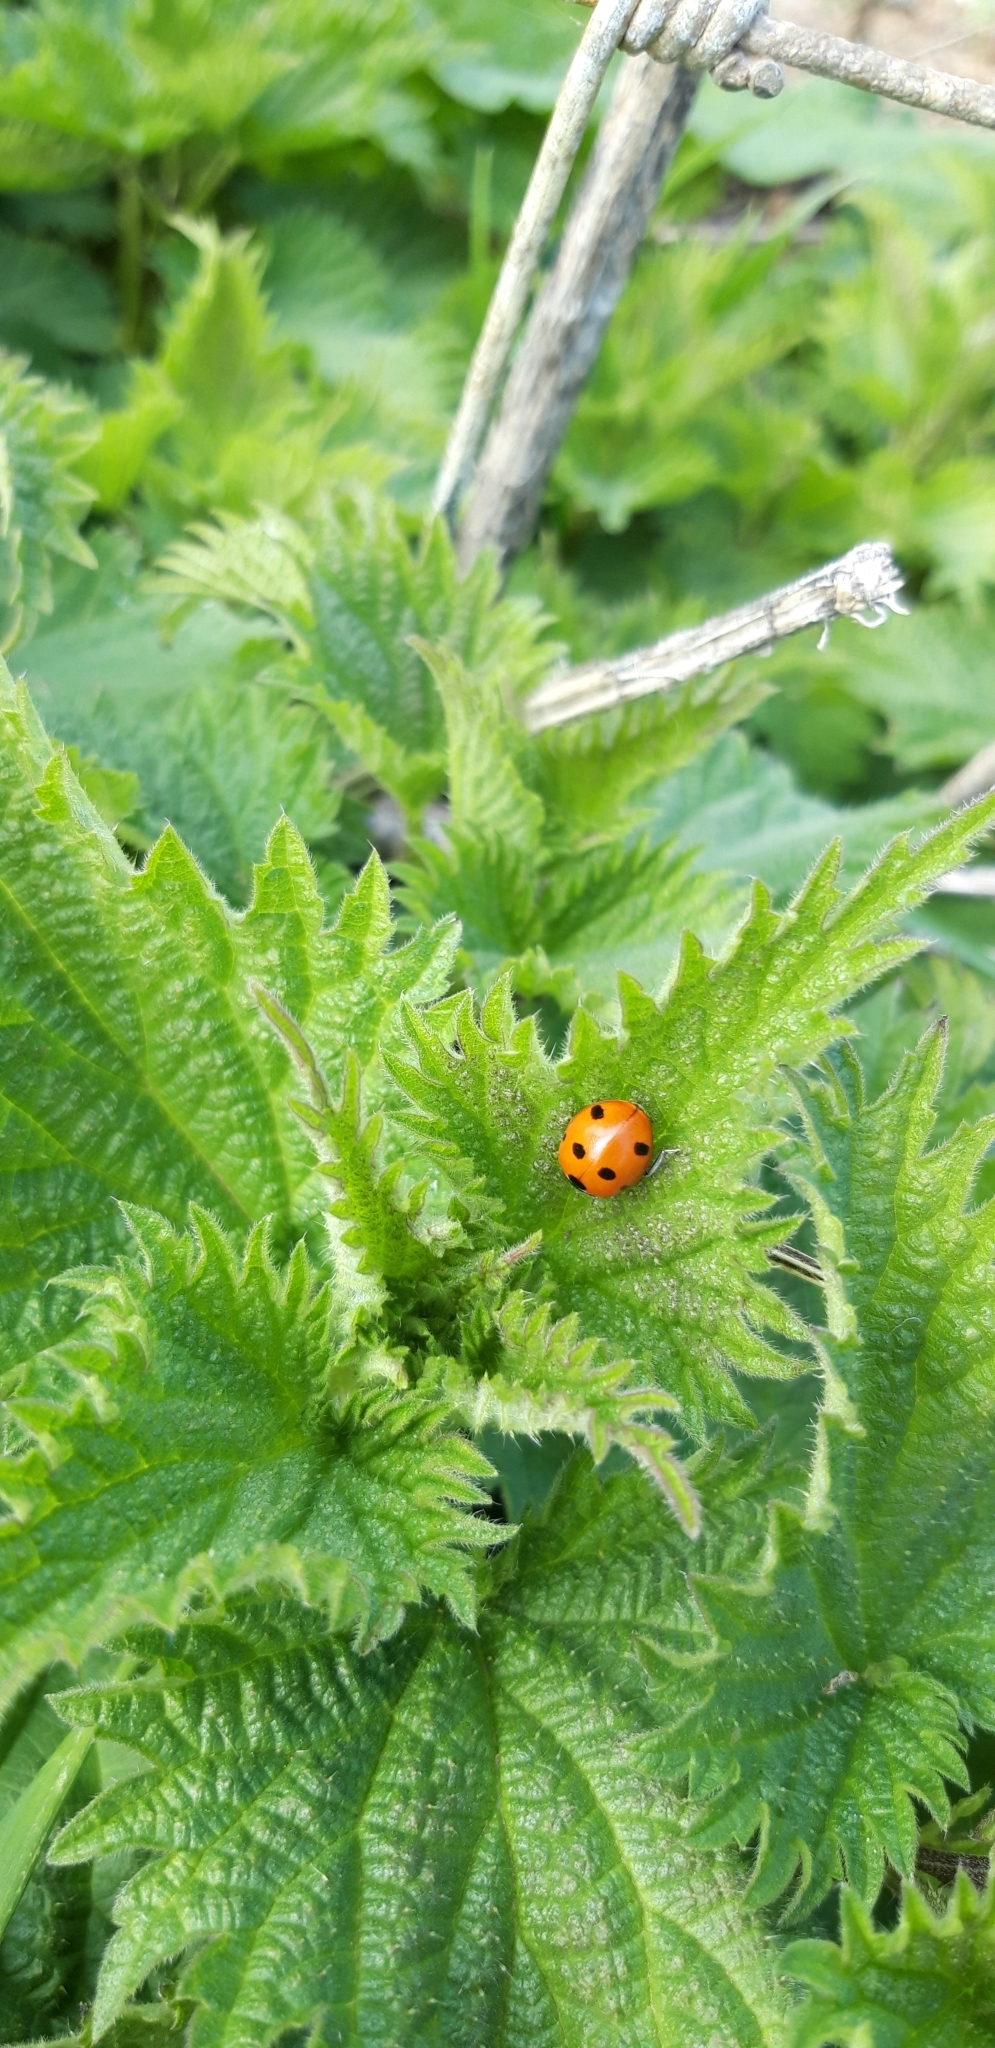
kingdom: Animalia
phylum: Arthropoda
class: Insecta
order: Coleoptera
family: Coccinellidae
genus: Coccinella
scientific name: Coccinella septempunctata
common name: Sevenspotted lady beetle
